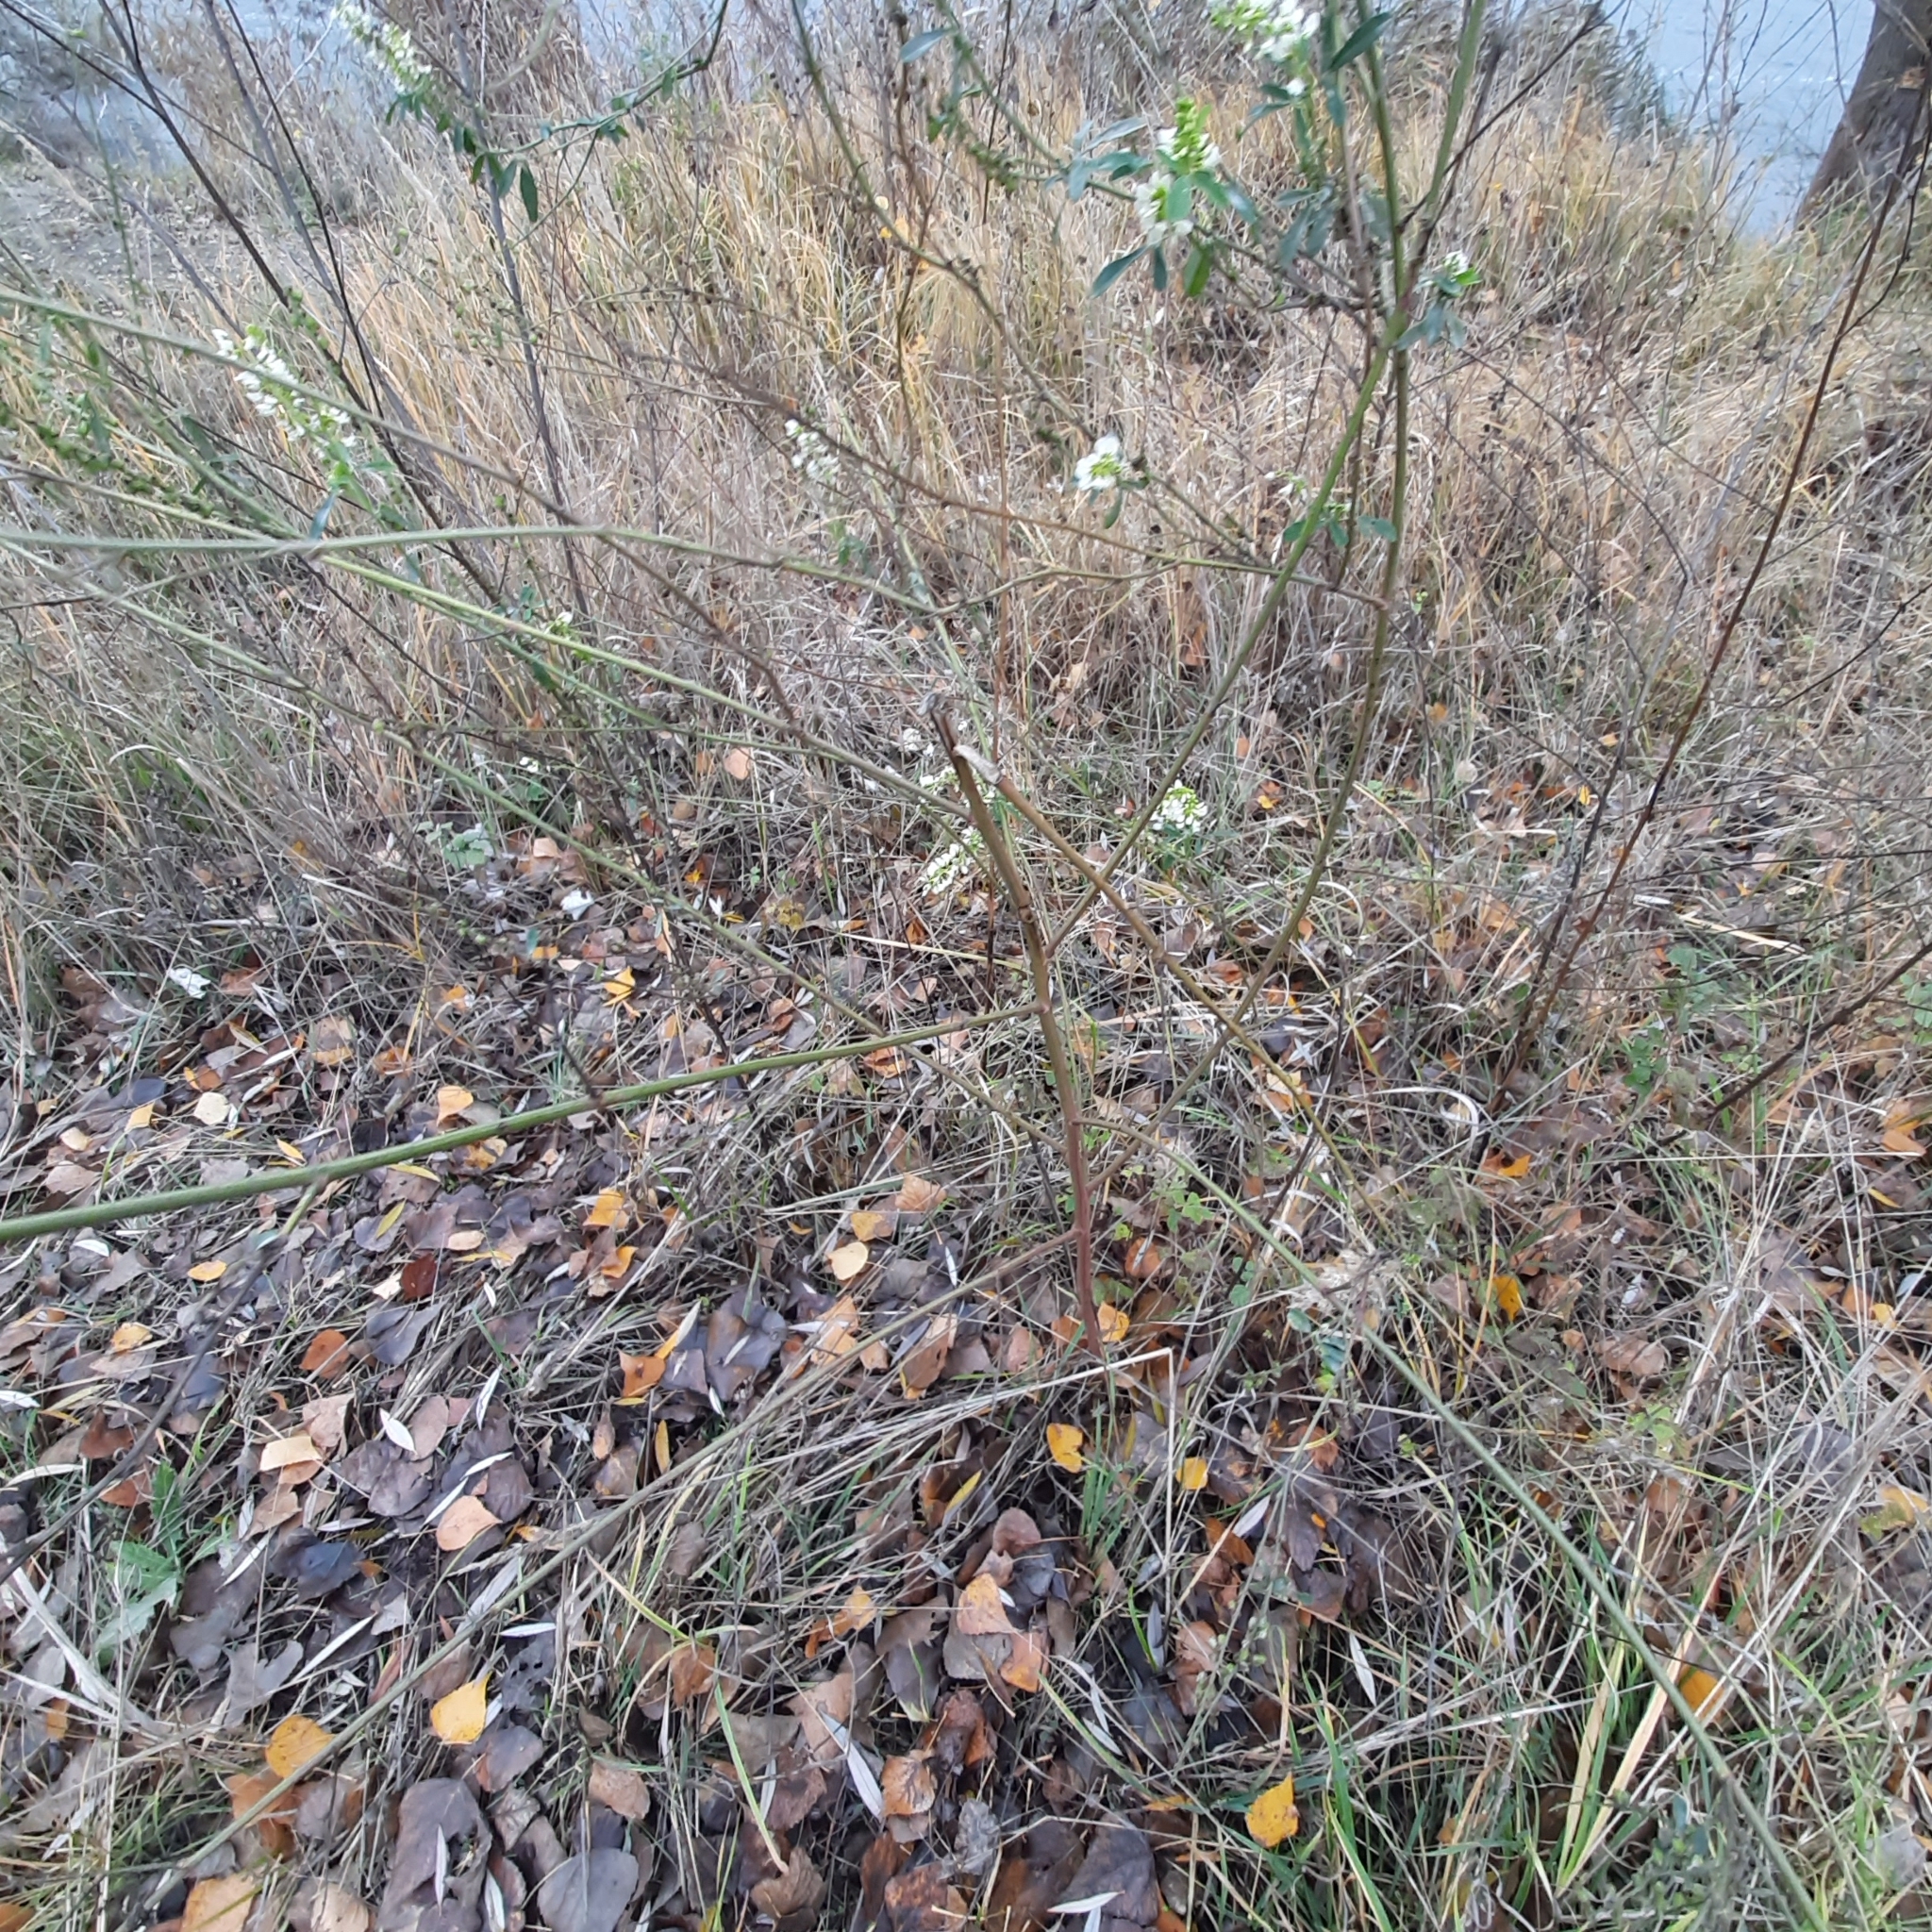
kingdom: Plantae
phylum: Tracheophyta
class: Magnoliopsida
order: Fabales
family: Fabaceae
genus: Melilotus
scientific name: Melilotus albus
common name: White melilot
